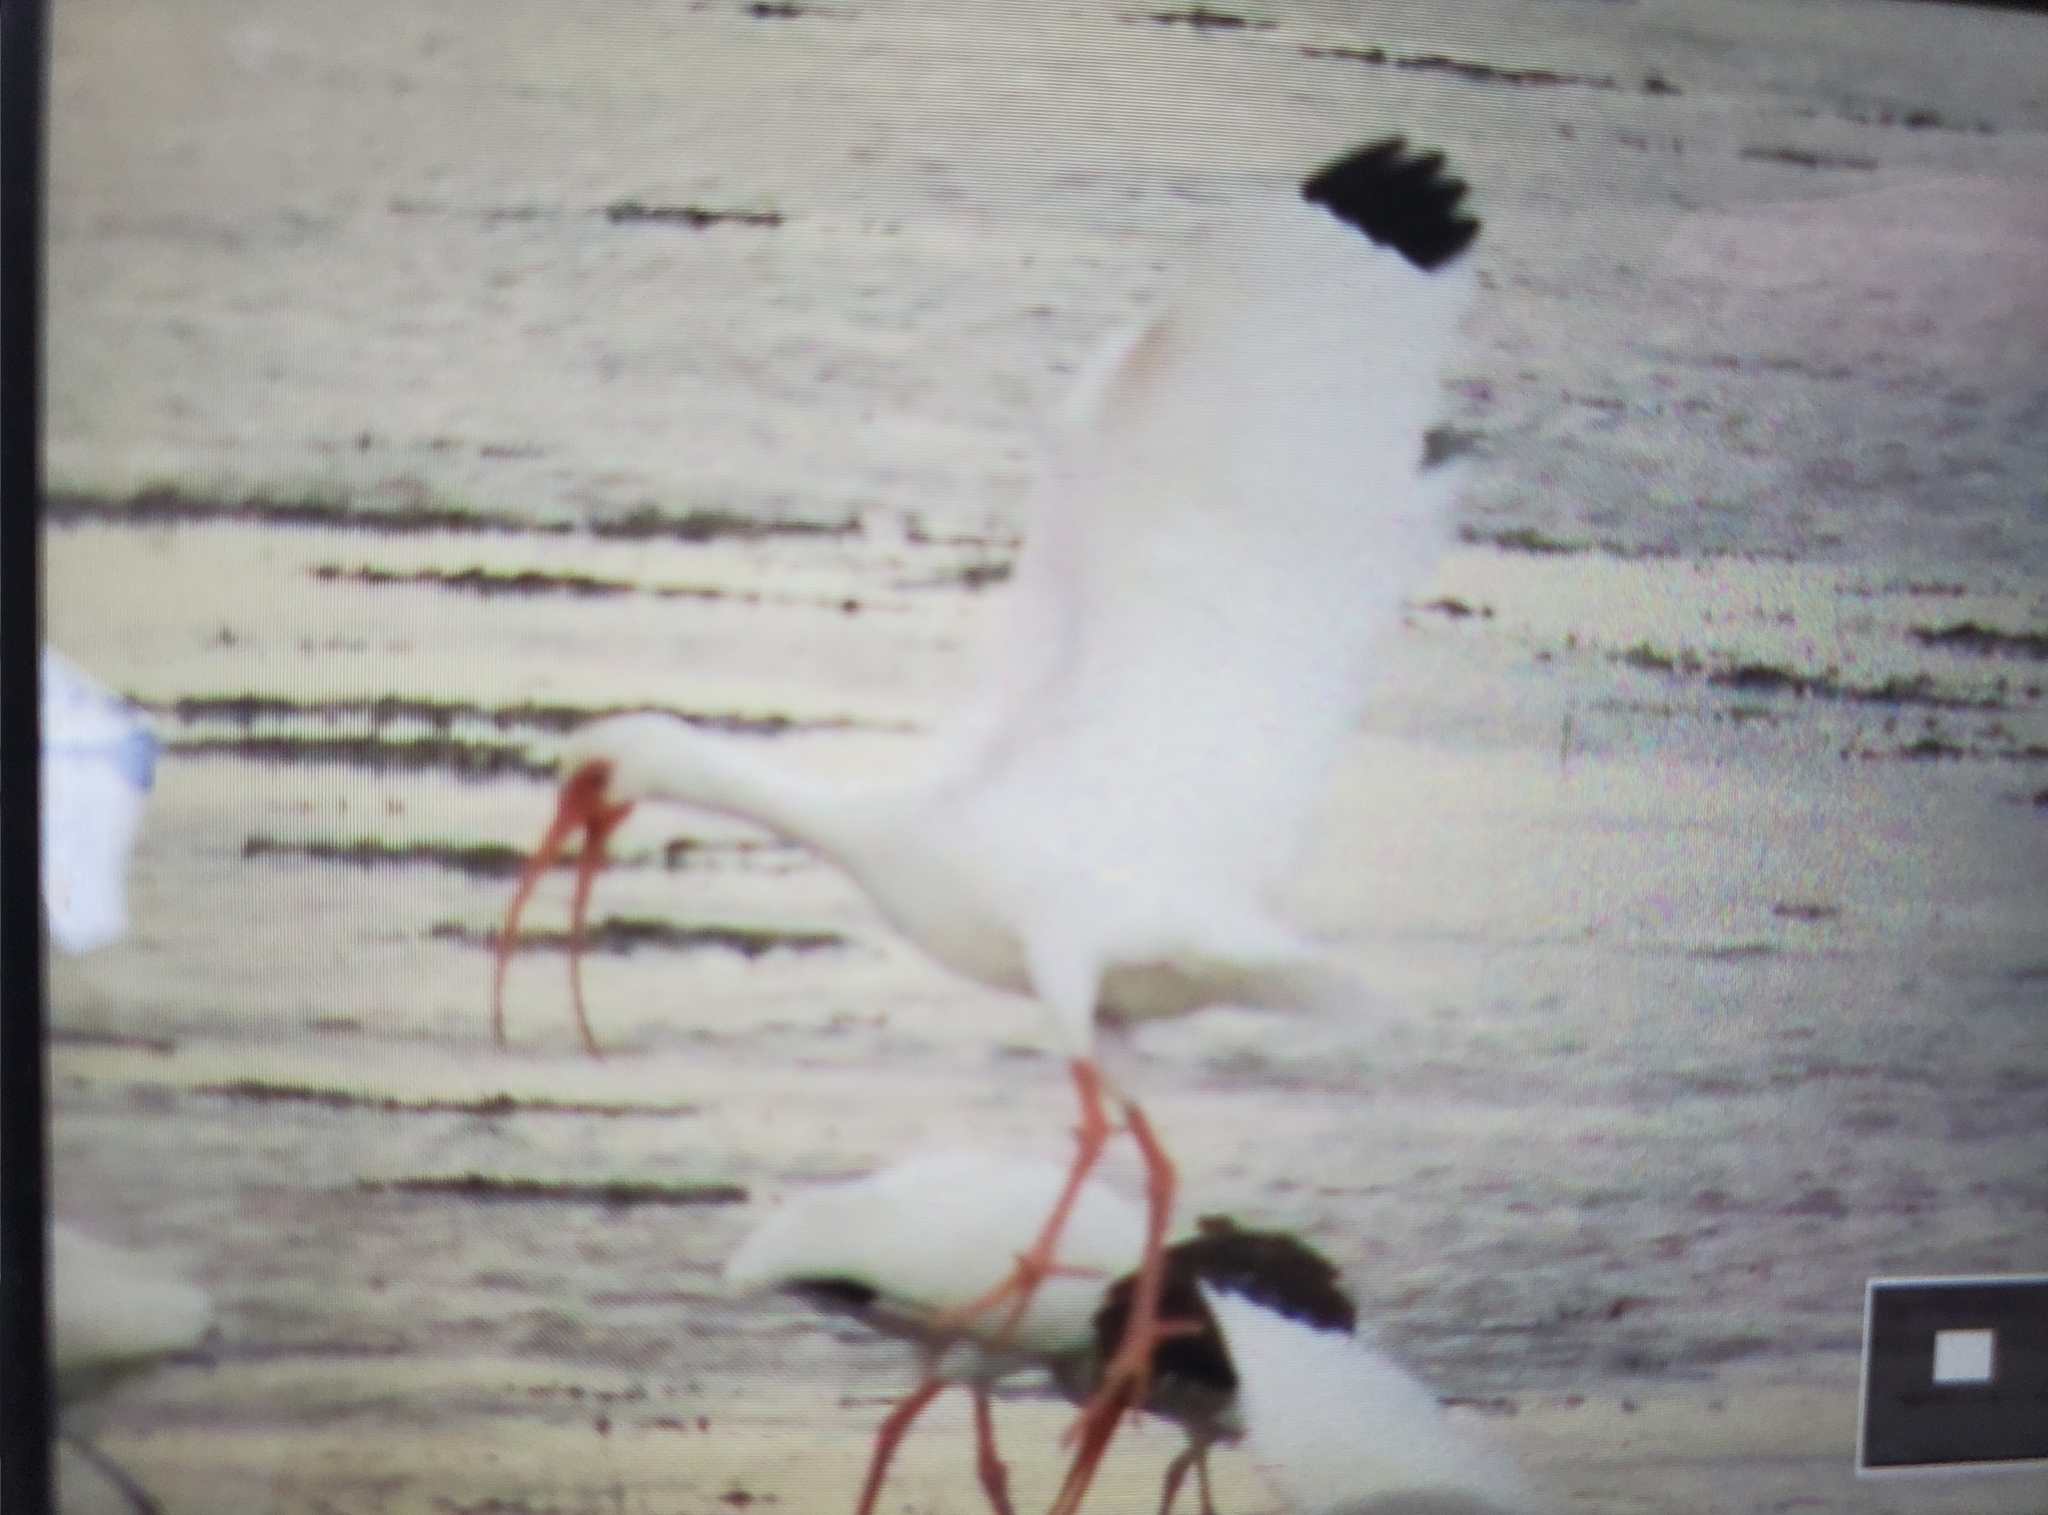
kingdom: Animalia
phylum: Chordata
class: Aves
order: Pelecaniformes
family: Threskiornithidae
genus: Eudocimus
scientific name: Eudocimus albus
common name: White ibis
